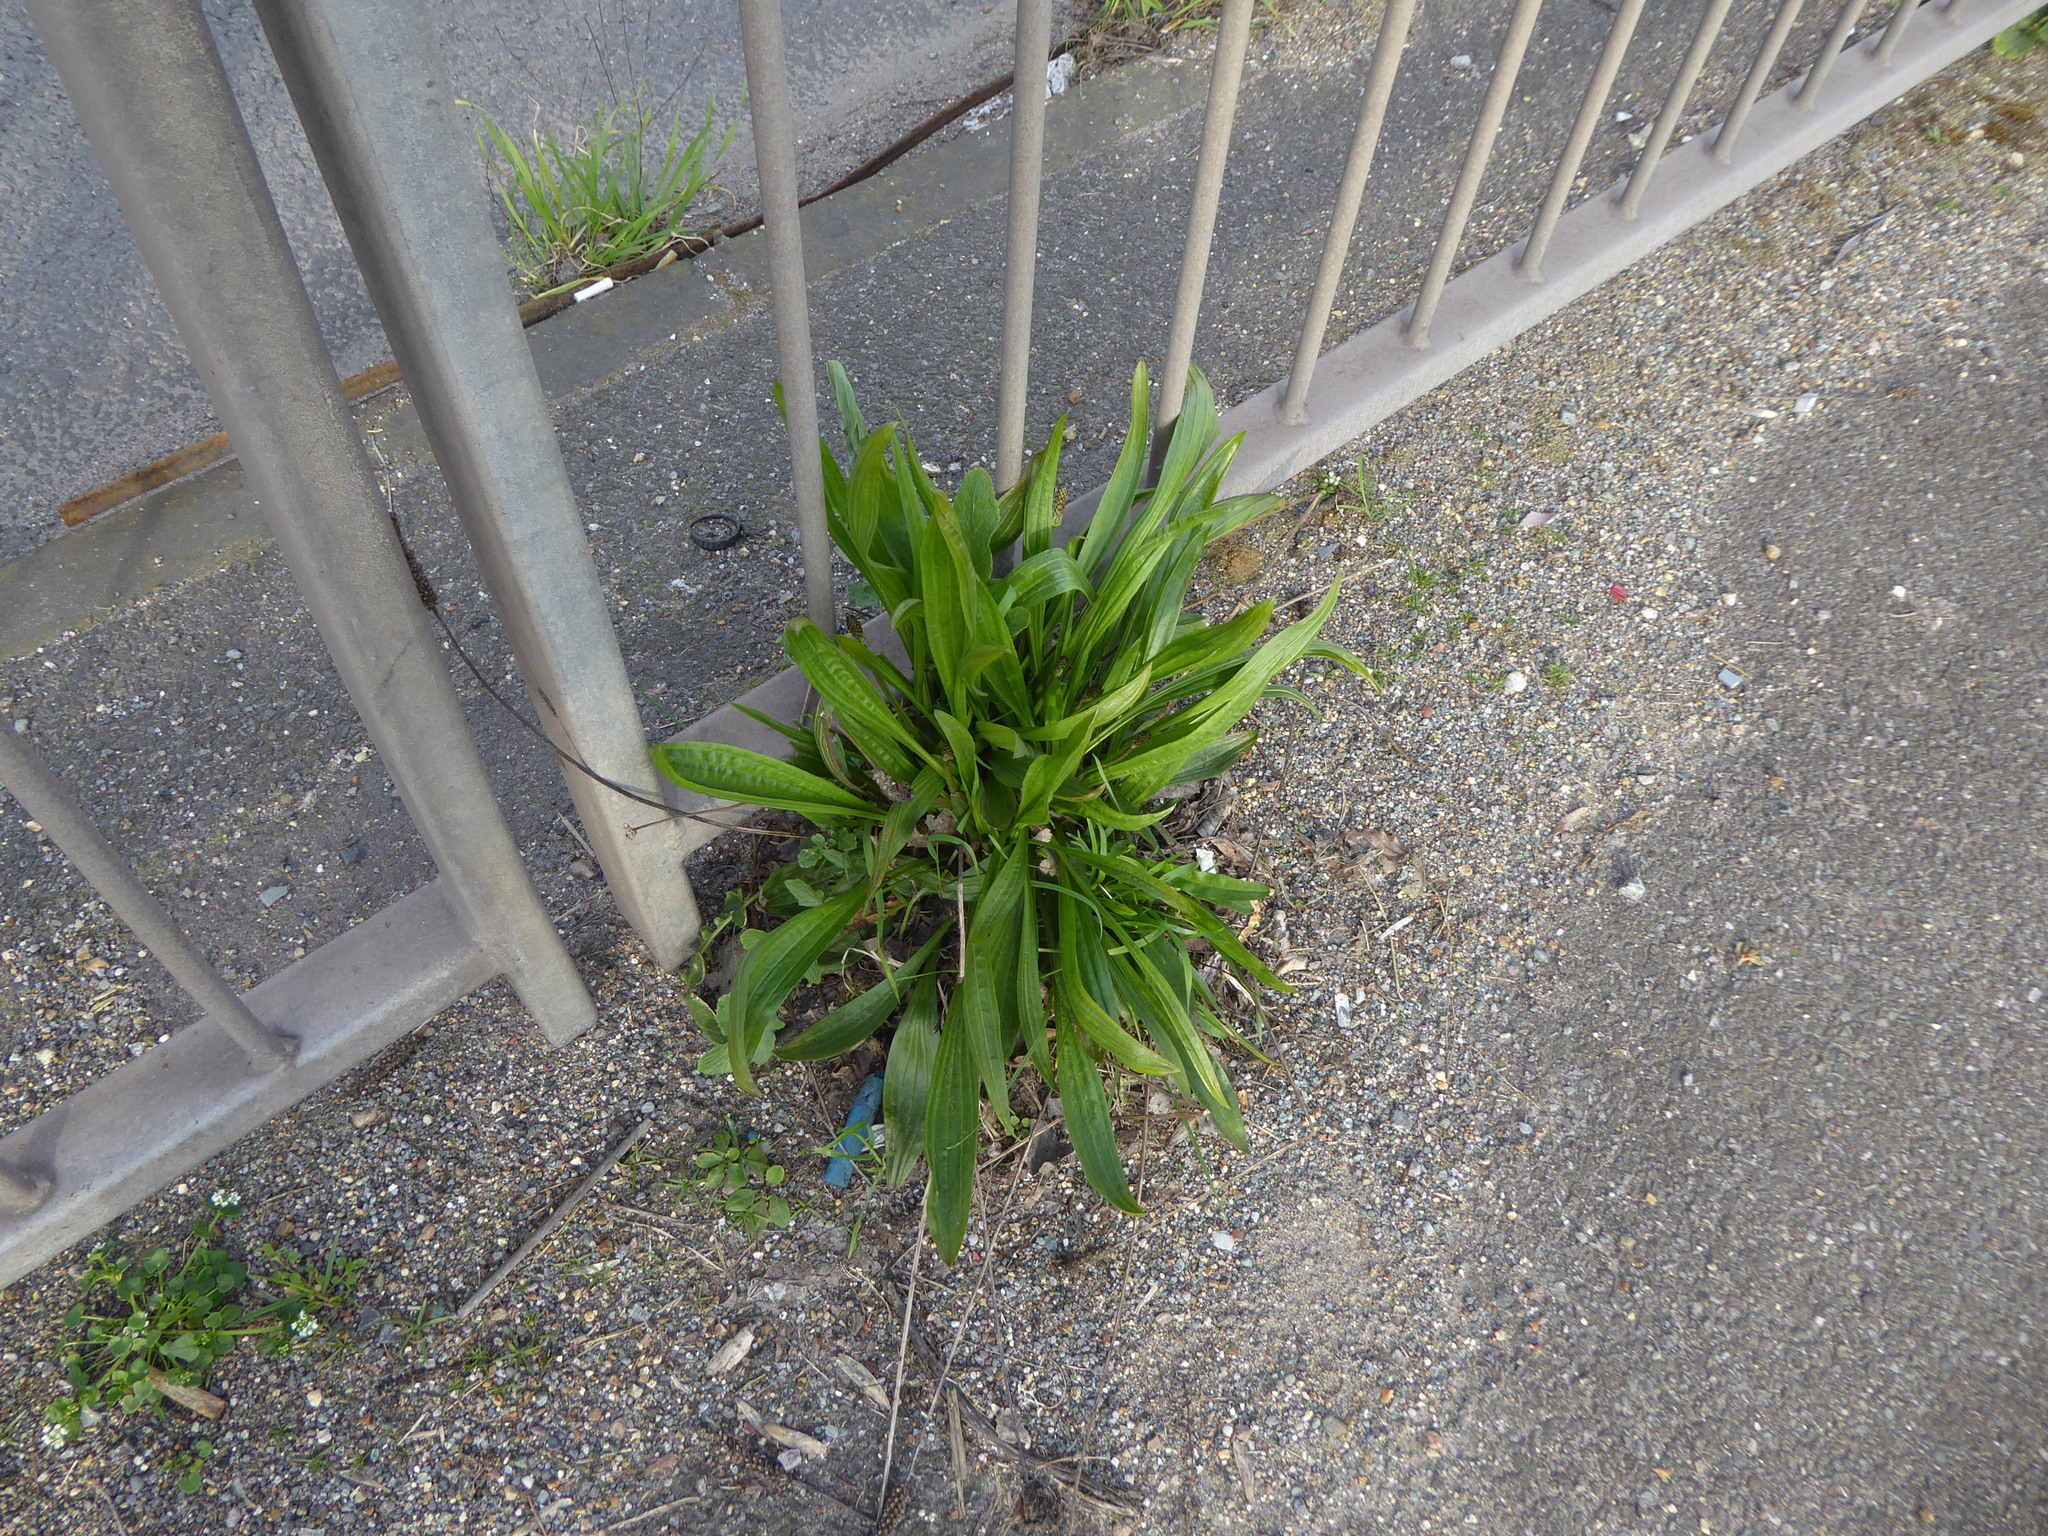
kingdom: Plantae
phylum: Tracheophyta
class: Magnoliopsida
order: Lamiales
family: Plantaginaceae
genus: Plantago
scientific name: Plantago lanceolata
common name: Ribwort plantain
